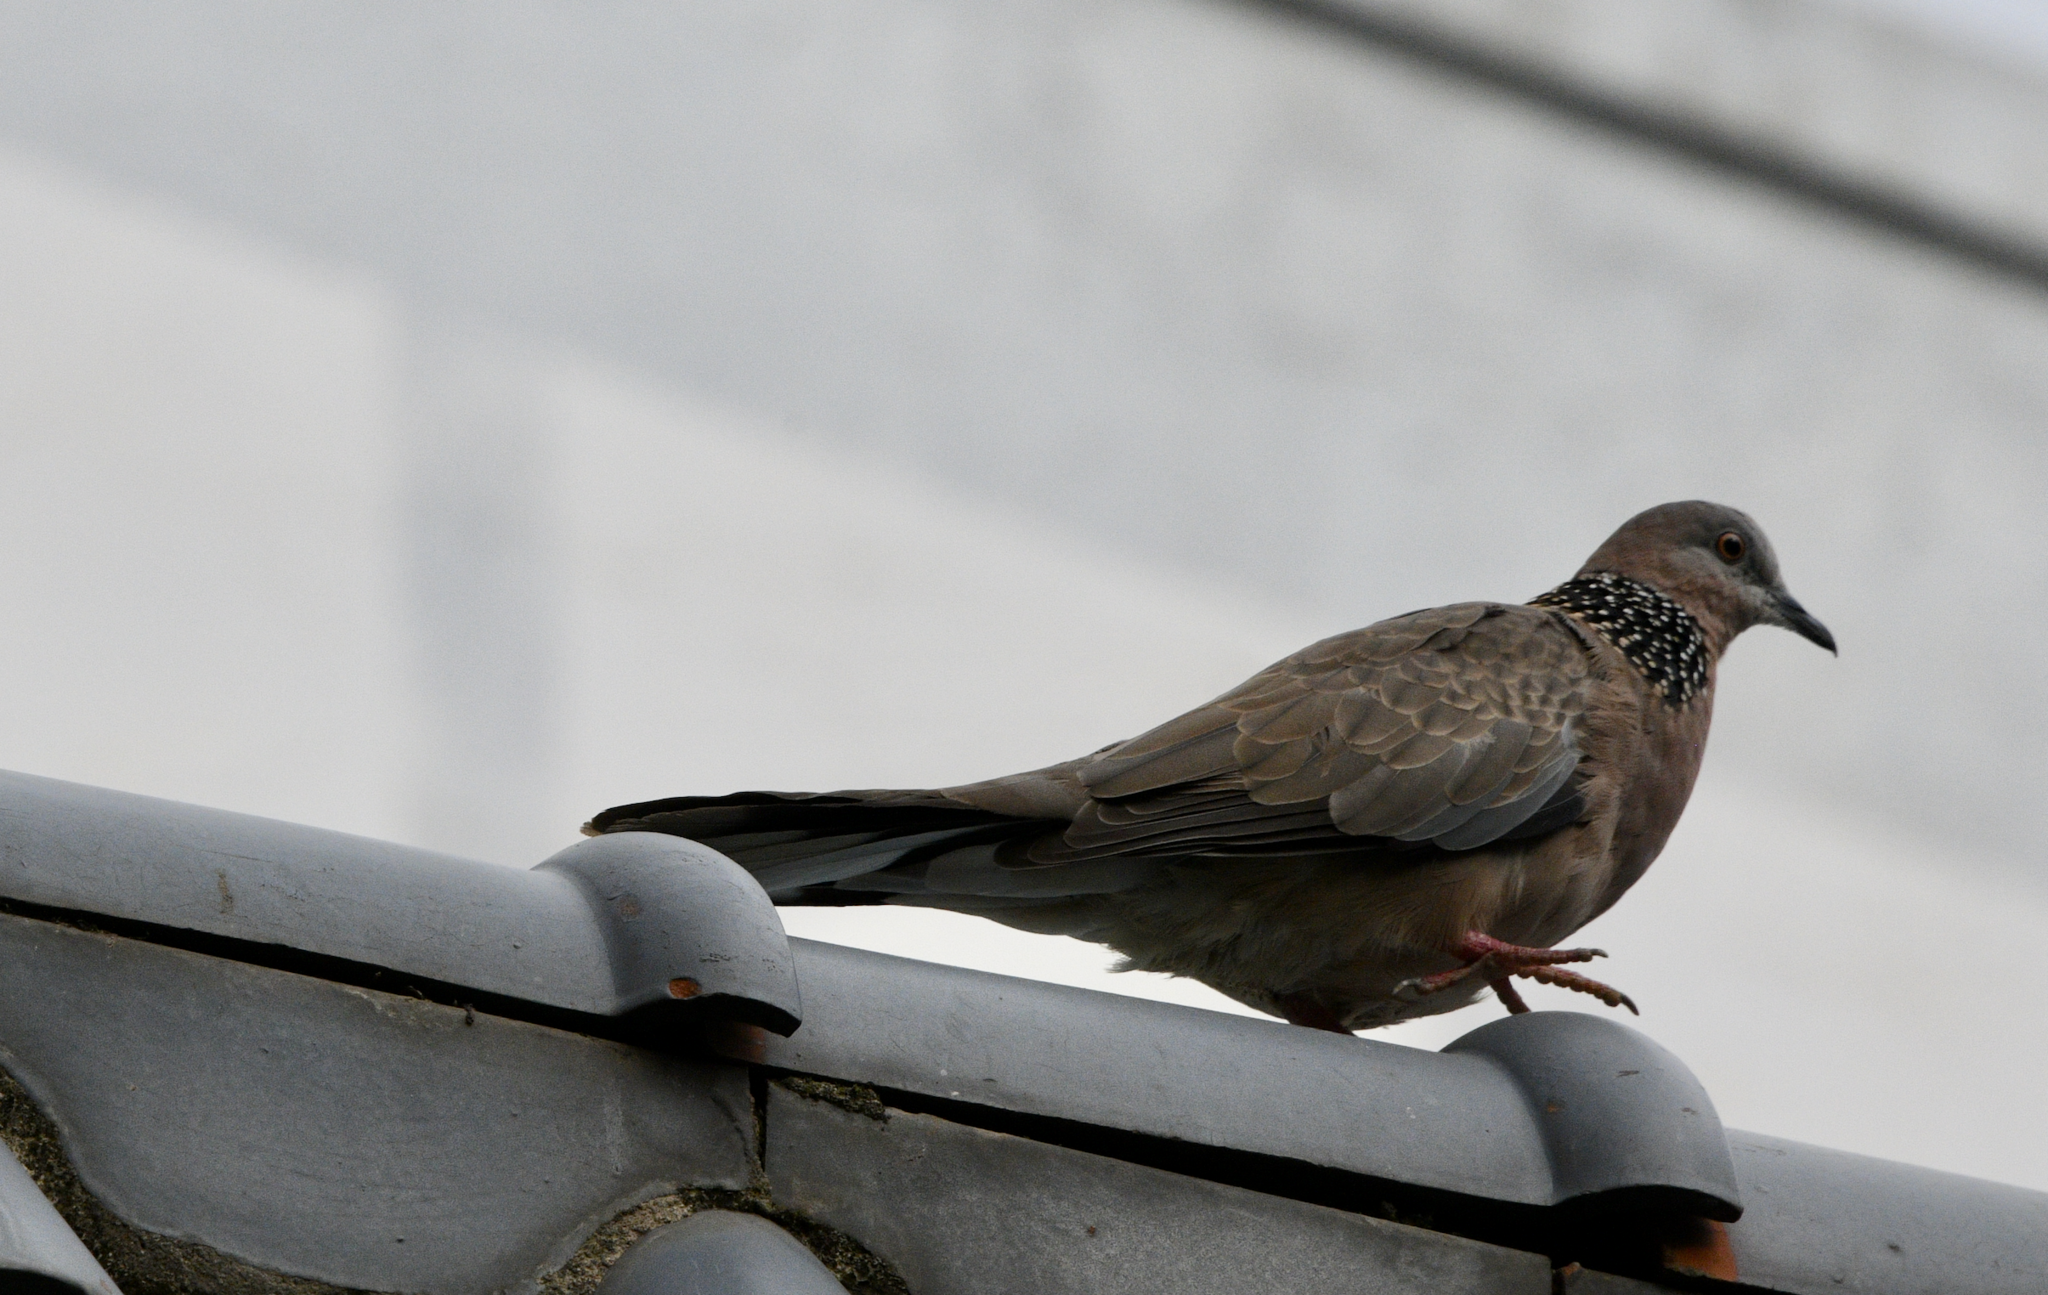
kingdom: Animalia
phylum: Chordata
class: Aves
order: Columbiformes
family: Columbidae
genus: Spilopelia
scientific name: Spilopelia chinensis
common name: Spotted dove
